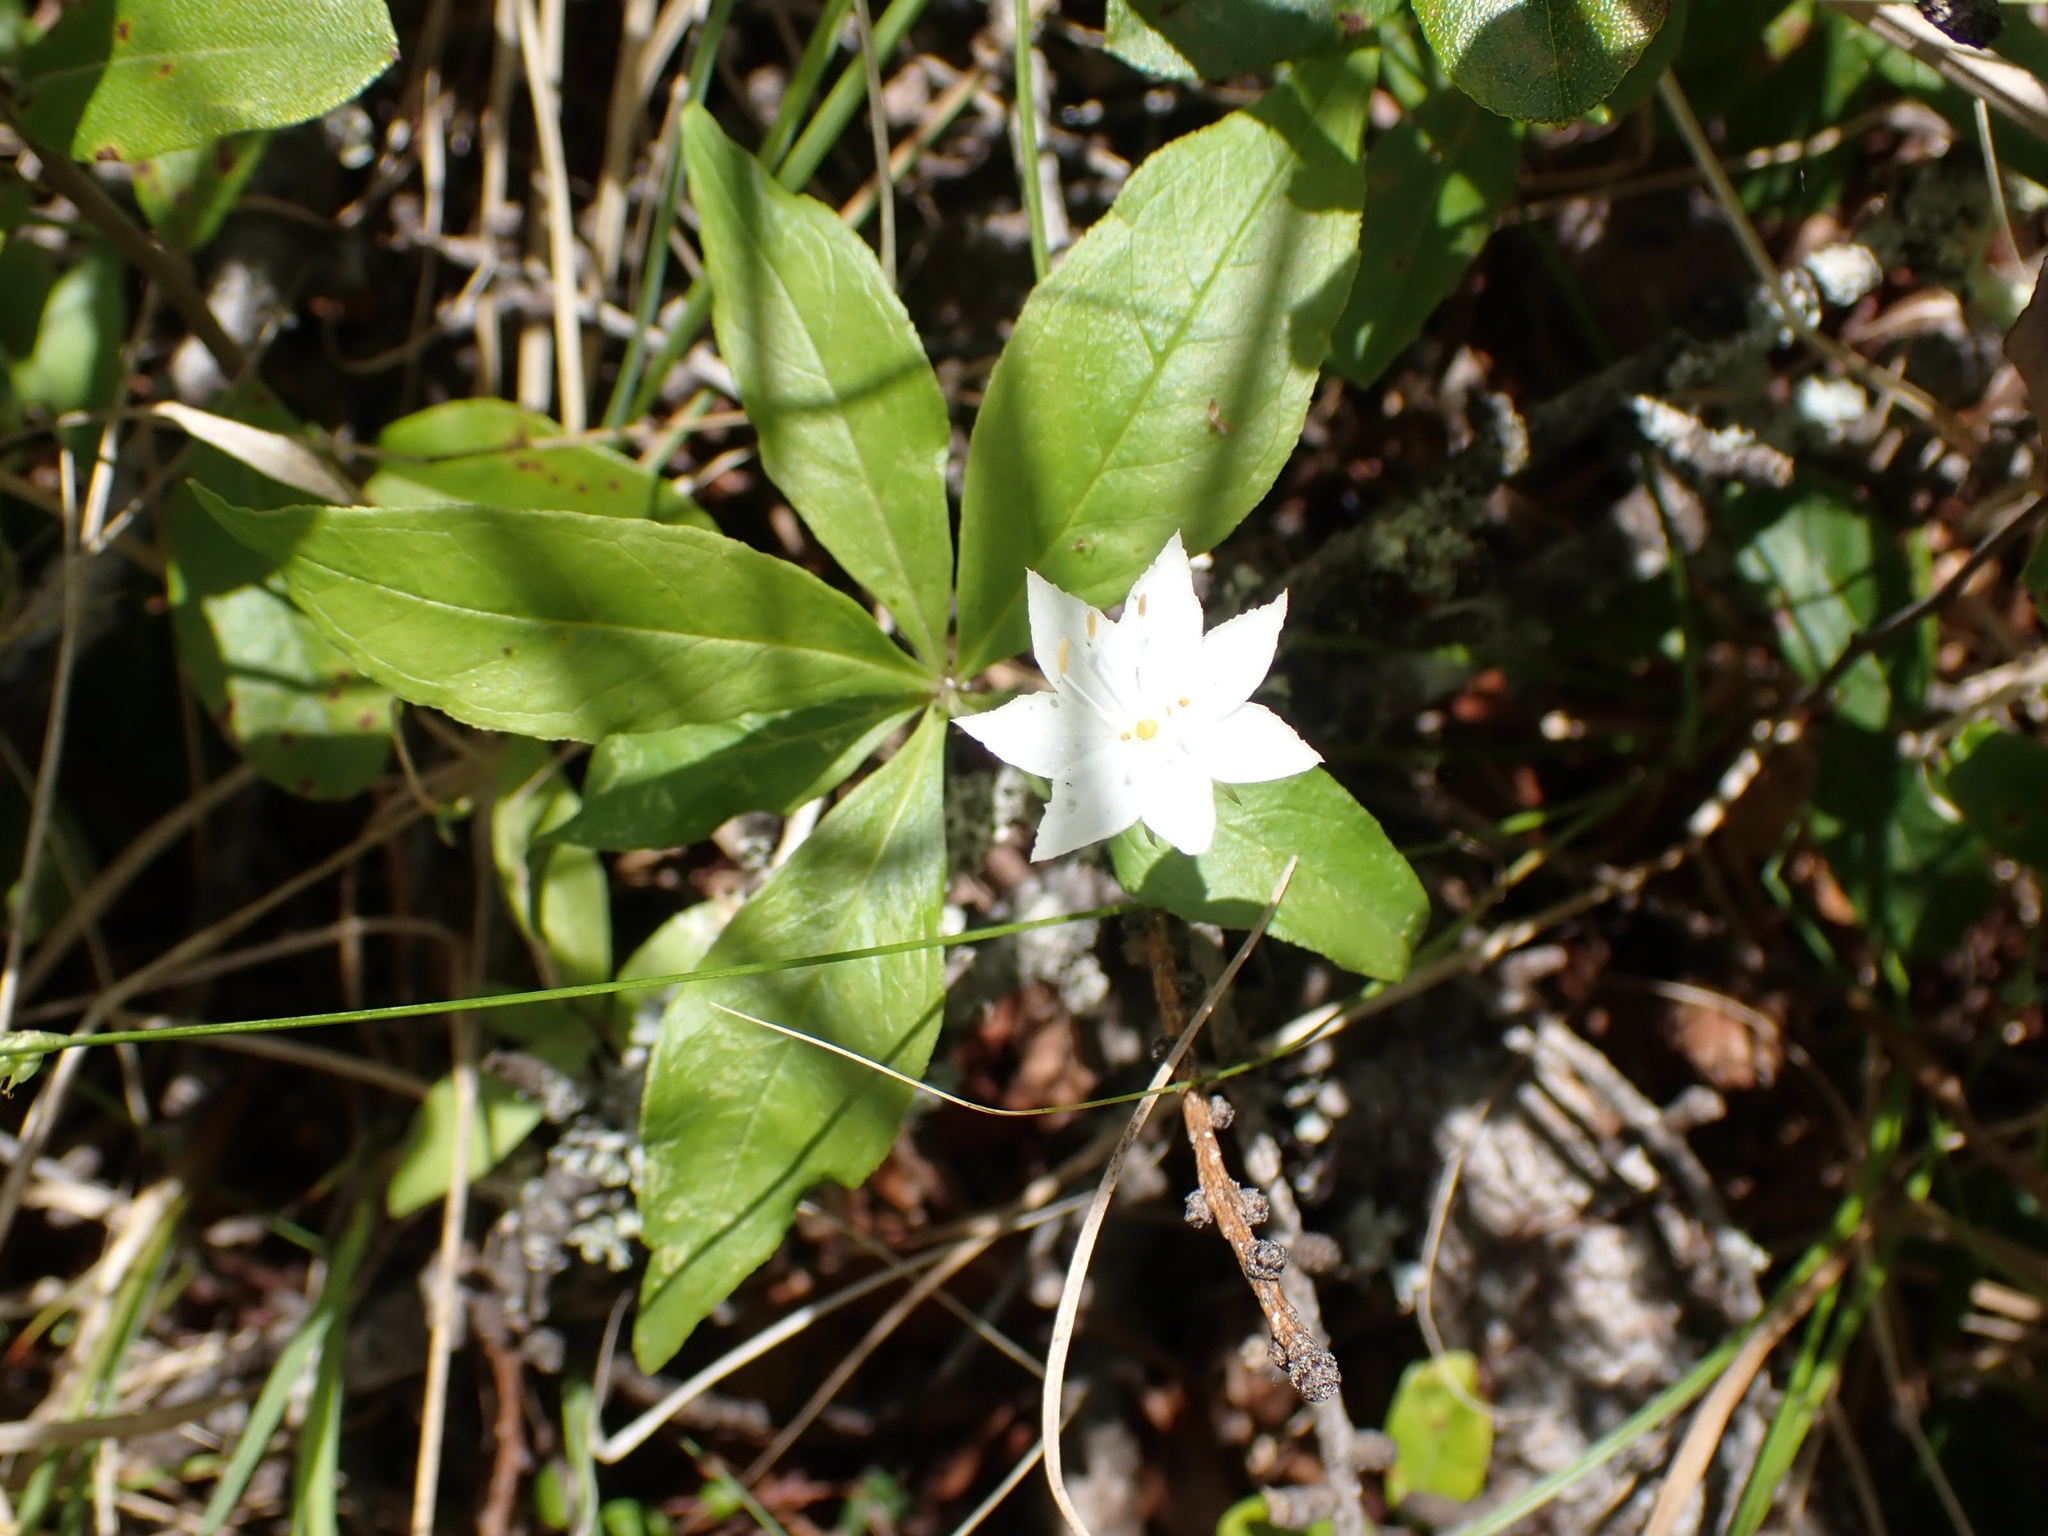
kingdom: Plantae
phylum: Tracheophyta
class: Magnoliopsida
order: Ericales
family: Primulaceae
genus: Lysimachia
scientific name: Lysimachia borealis
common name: American starflower
